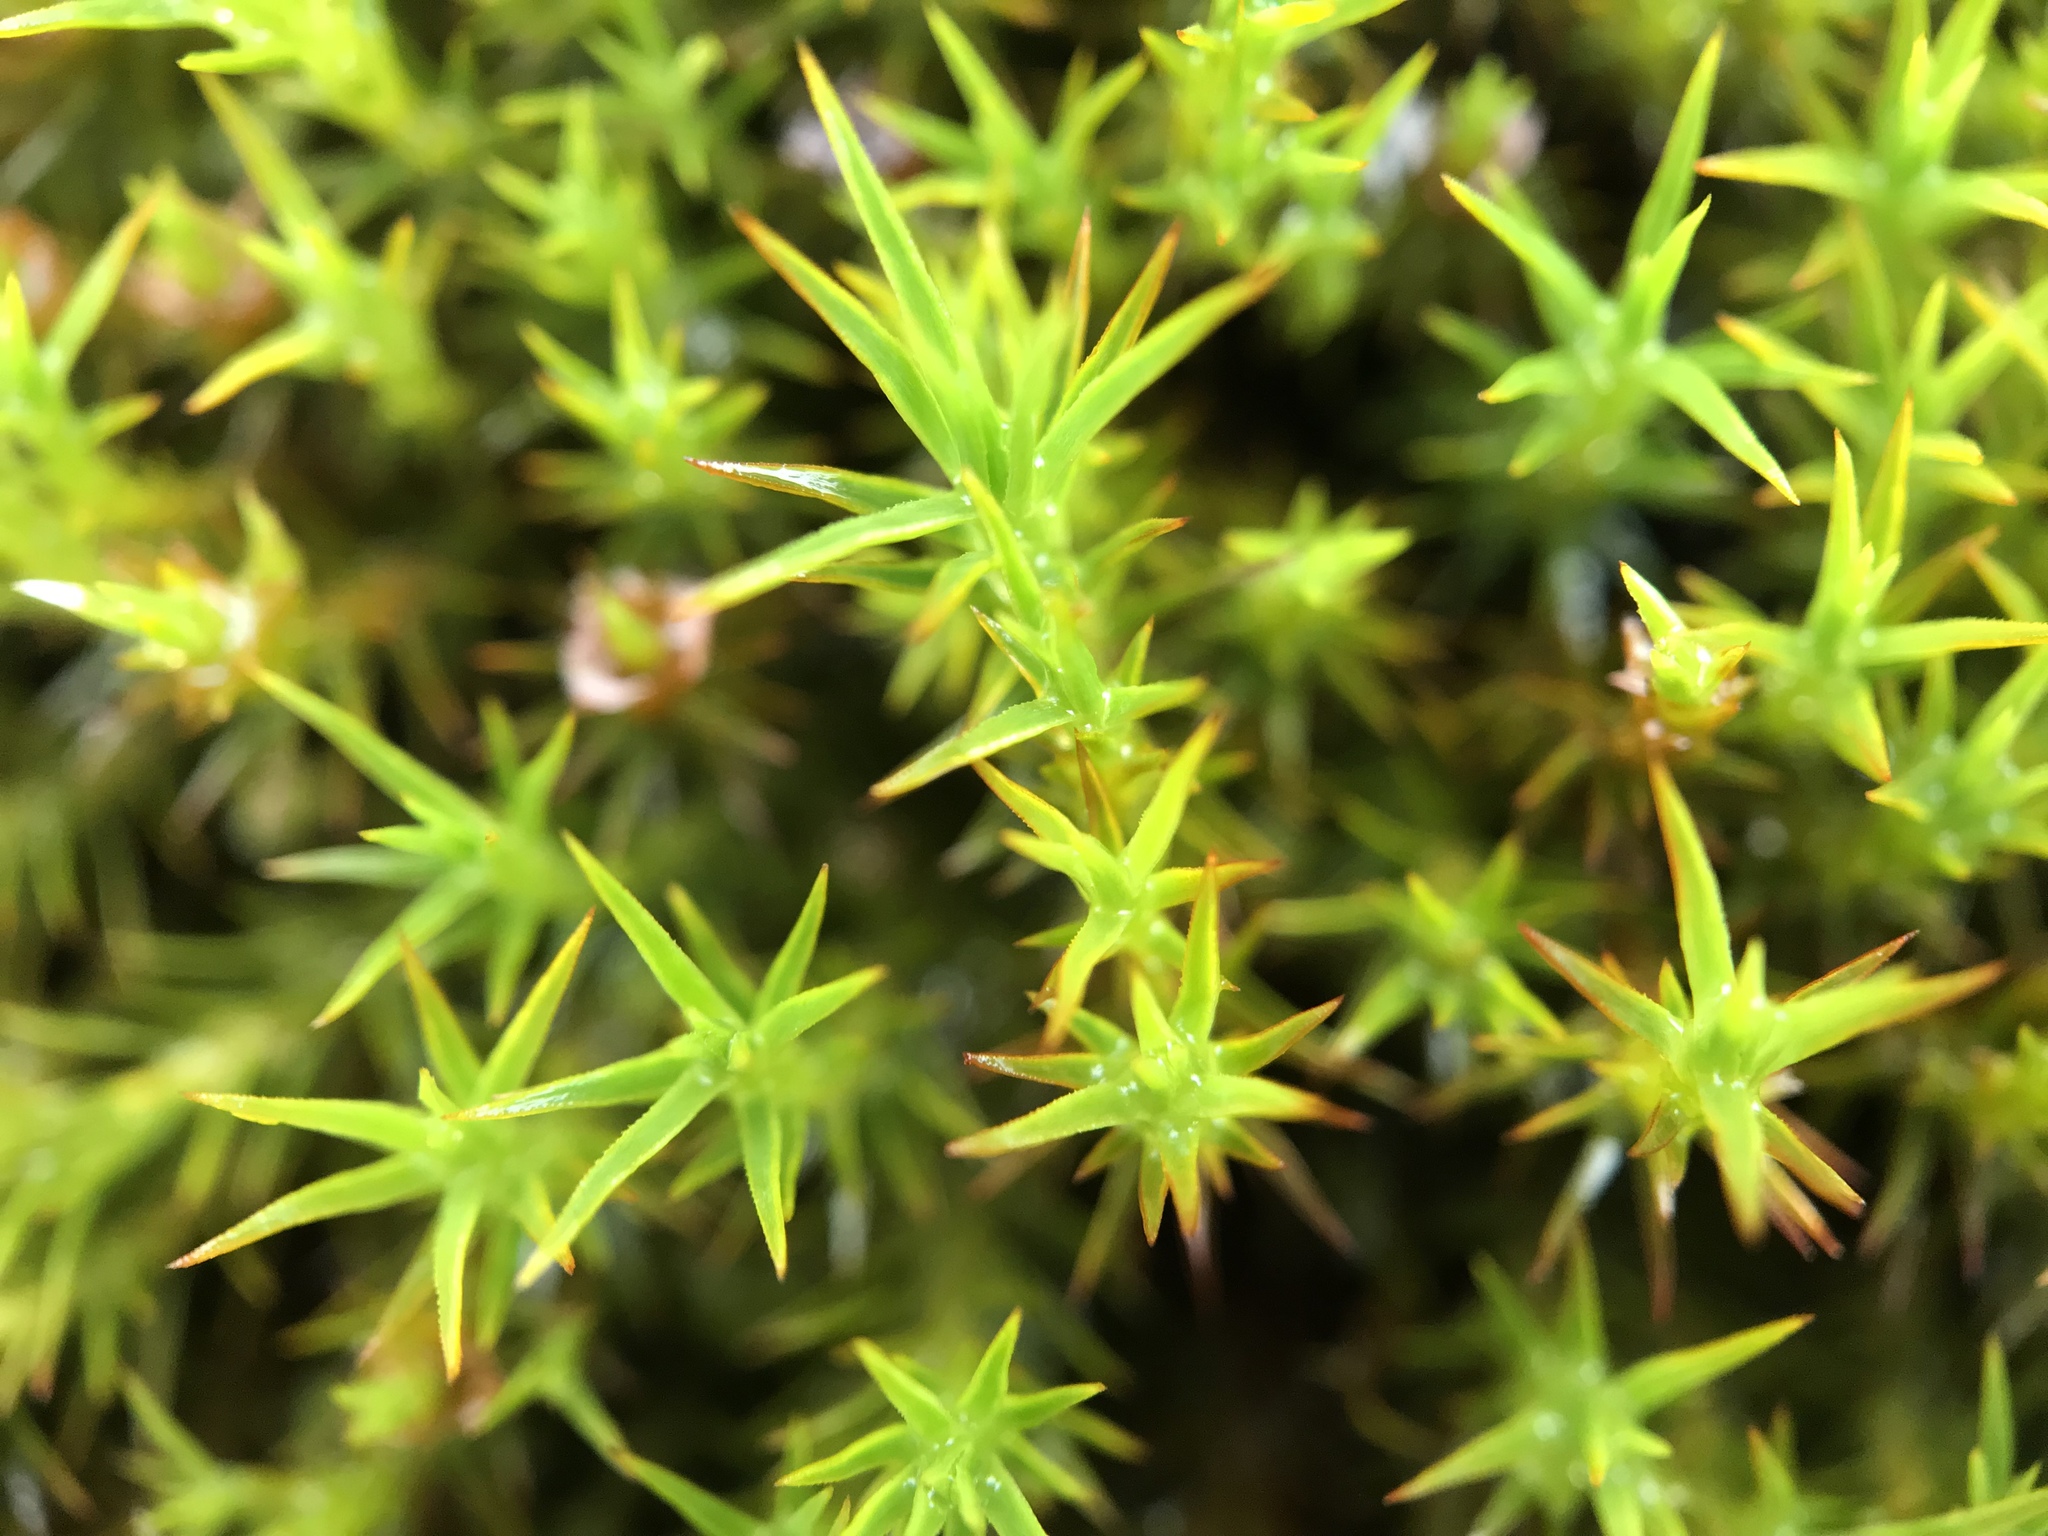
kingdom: Plantae
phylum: Bryophyta
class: Polytrichopsida
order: Polytrichales
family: Polytrichaceae
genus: Polytrichastrum
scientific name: Polytrichastrum alpinum
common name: Alpine haircap
